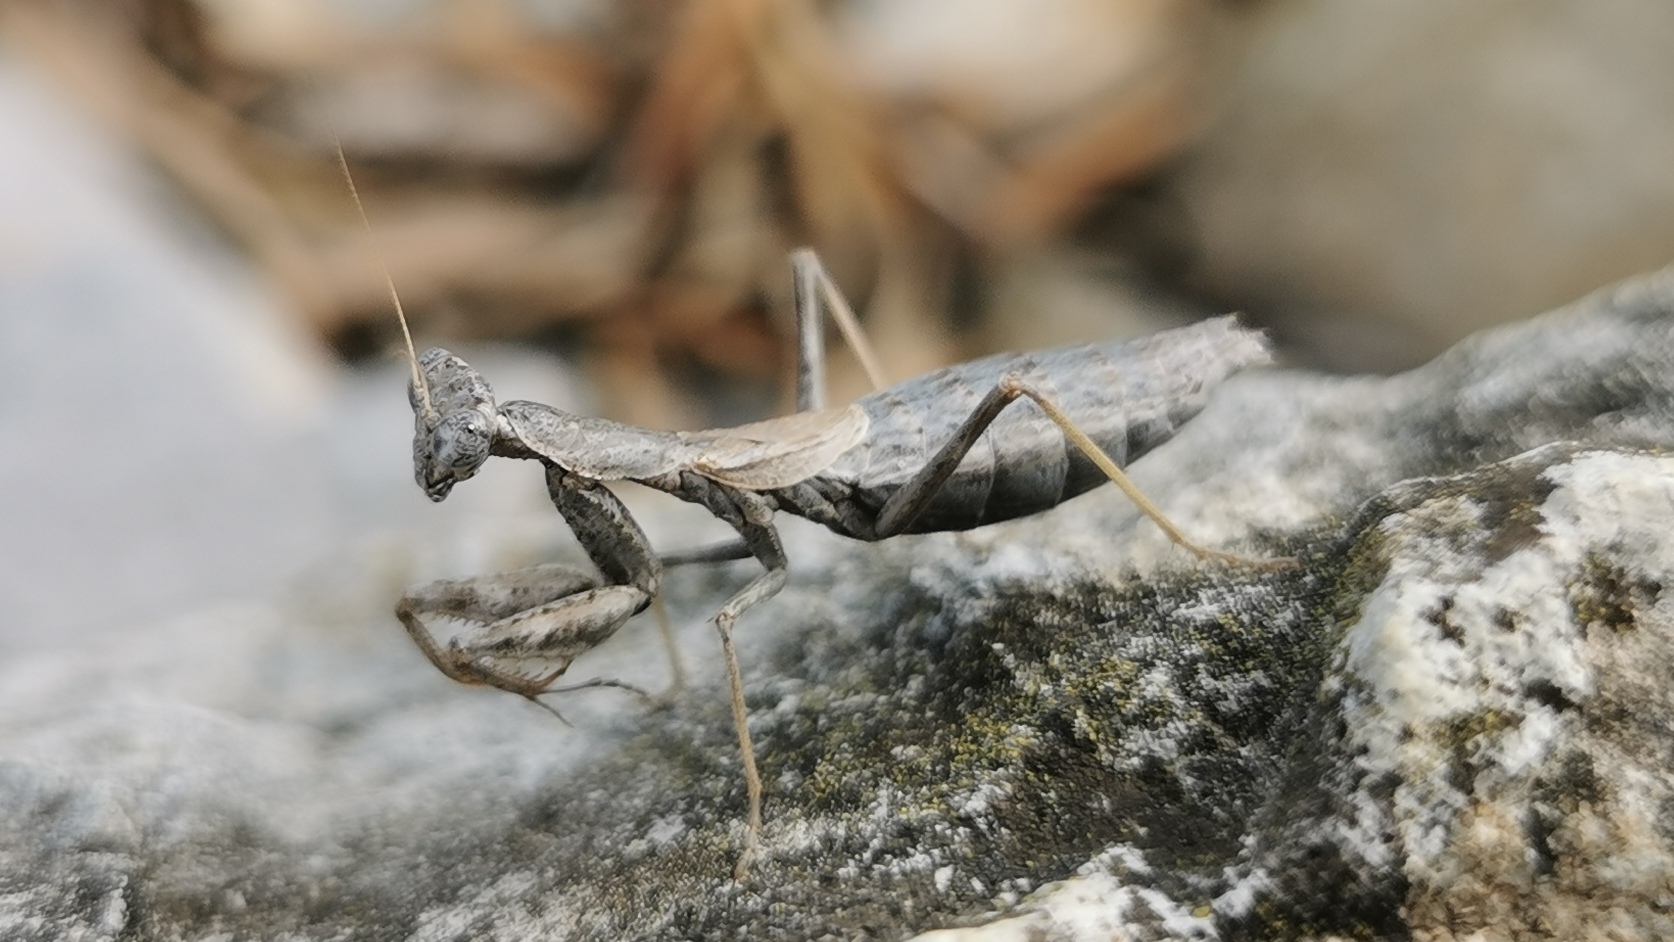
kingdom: Animalia
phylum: Arthropoda
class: Insecta
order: Mantodea
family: Amelidae
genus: Ameles
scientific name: Ameles decolor
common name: Dwarf mantis
